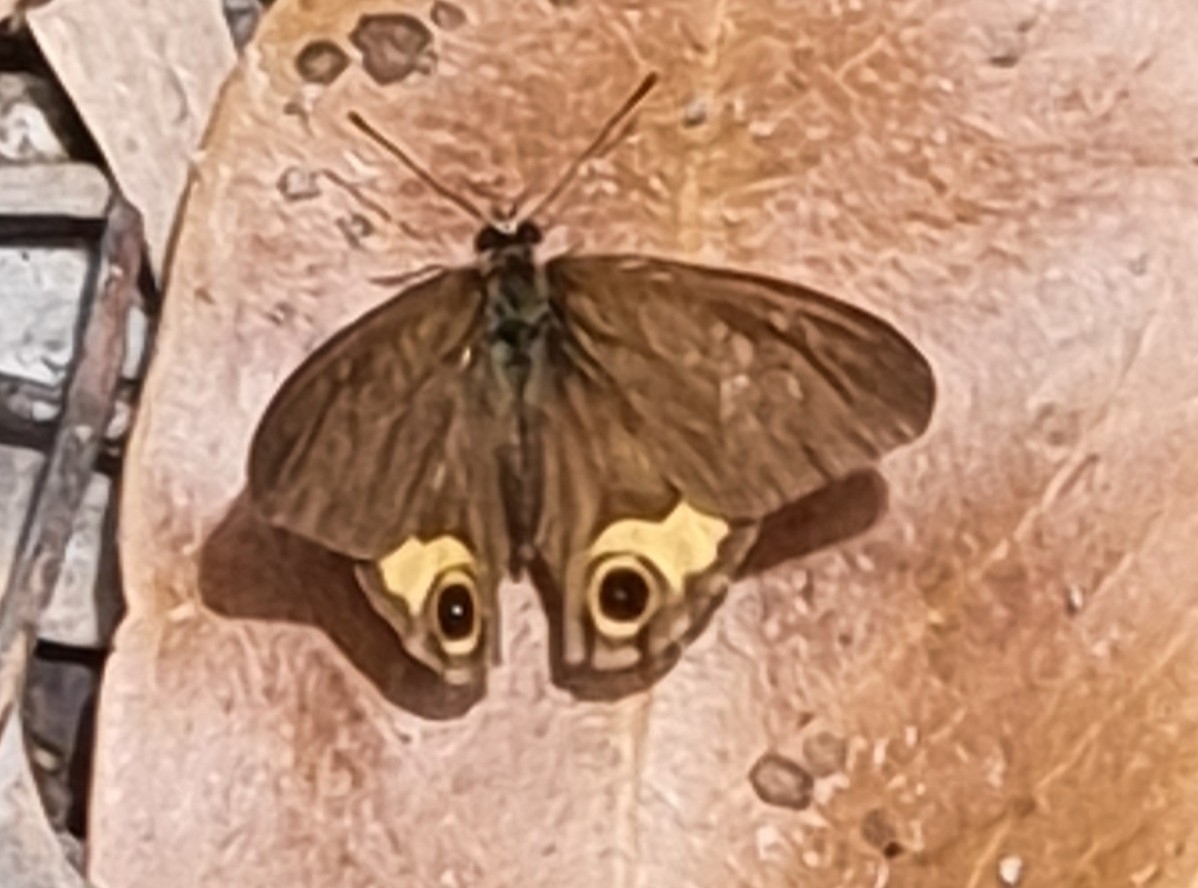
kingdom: Animalia
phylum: Arthropoda
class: Insecta
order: Lepidoptera
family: Nymphalidae
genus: Hypocysta
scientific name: Hypocysta metirius
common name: Brown ringlet
